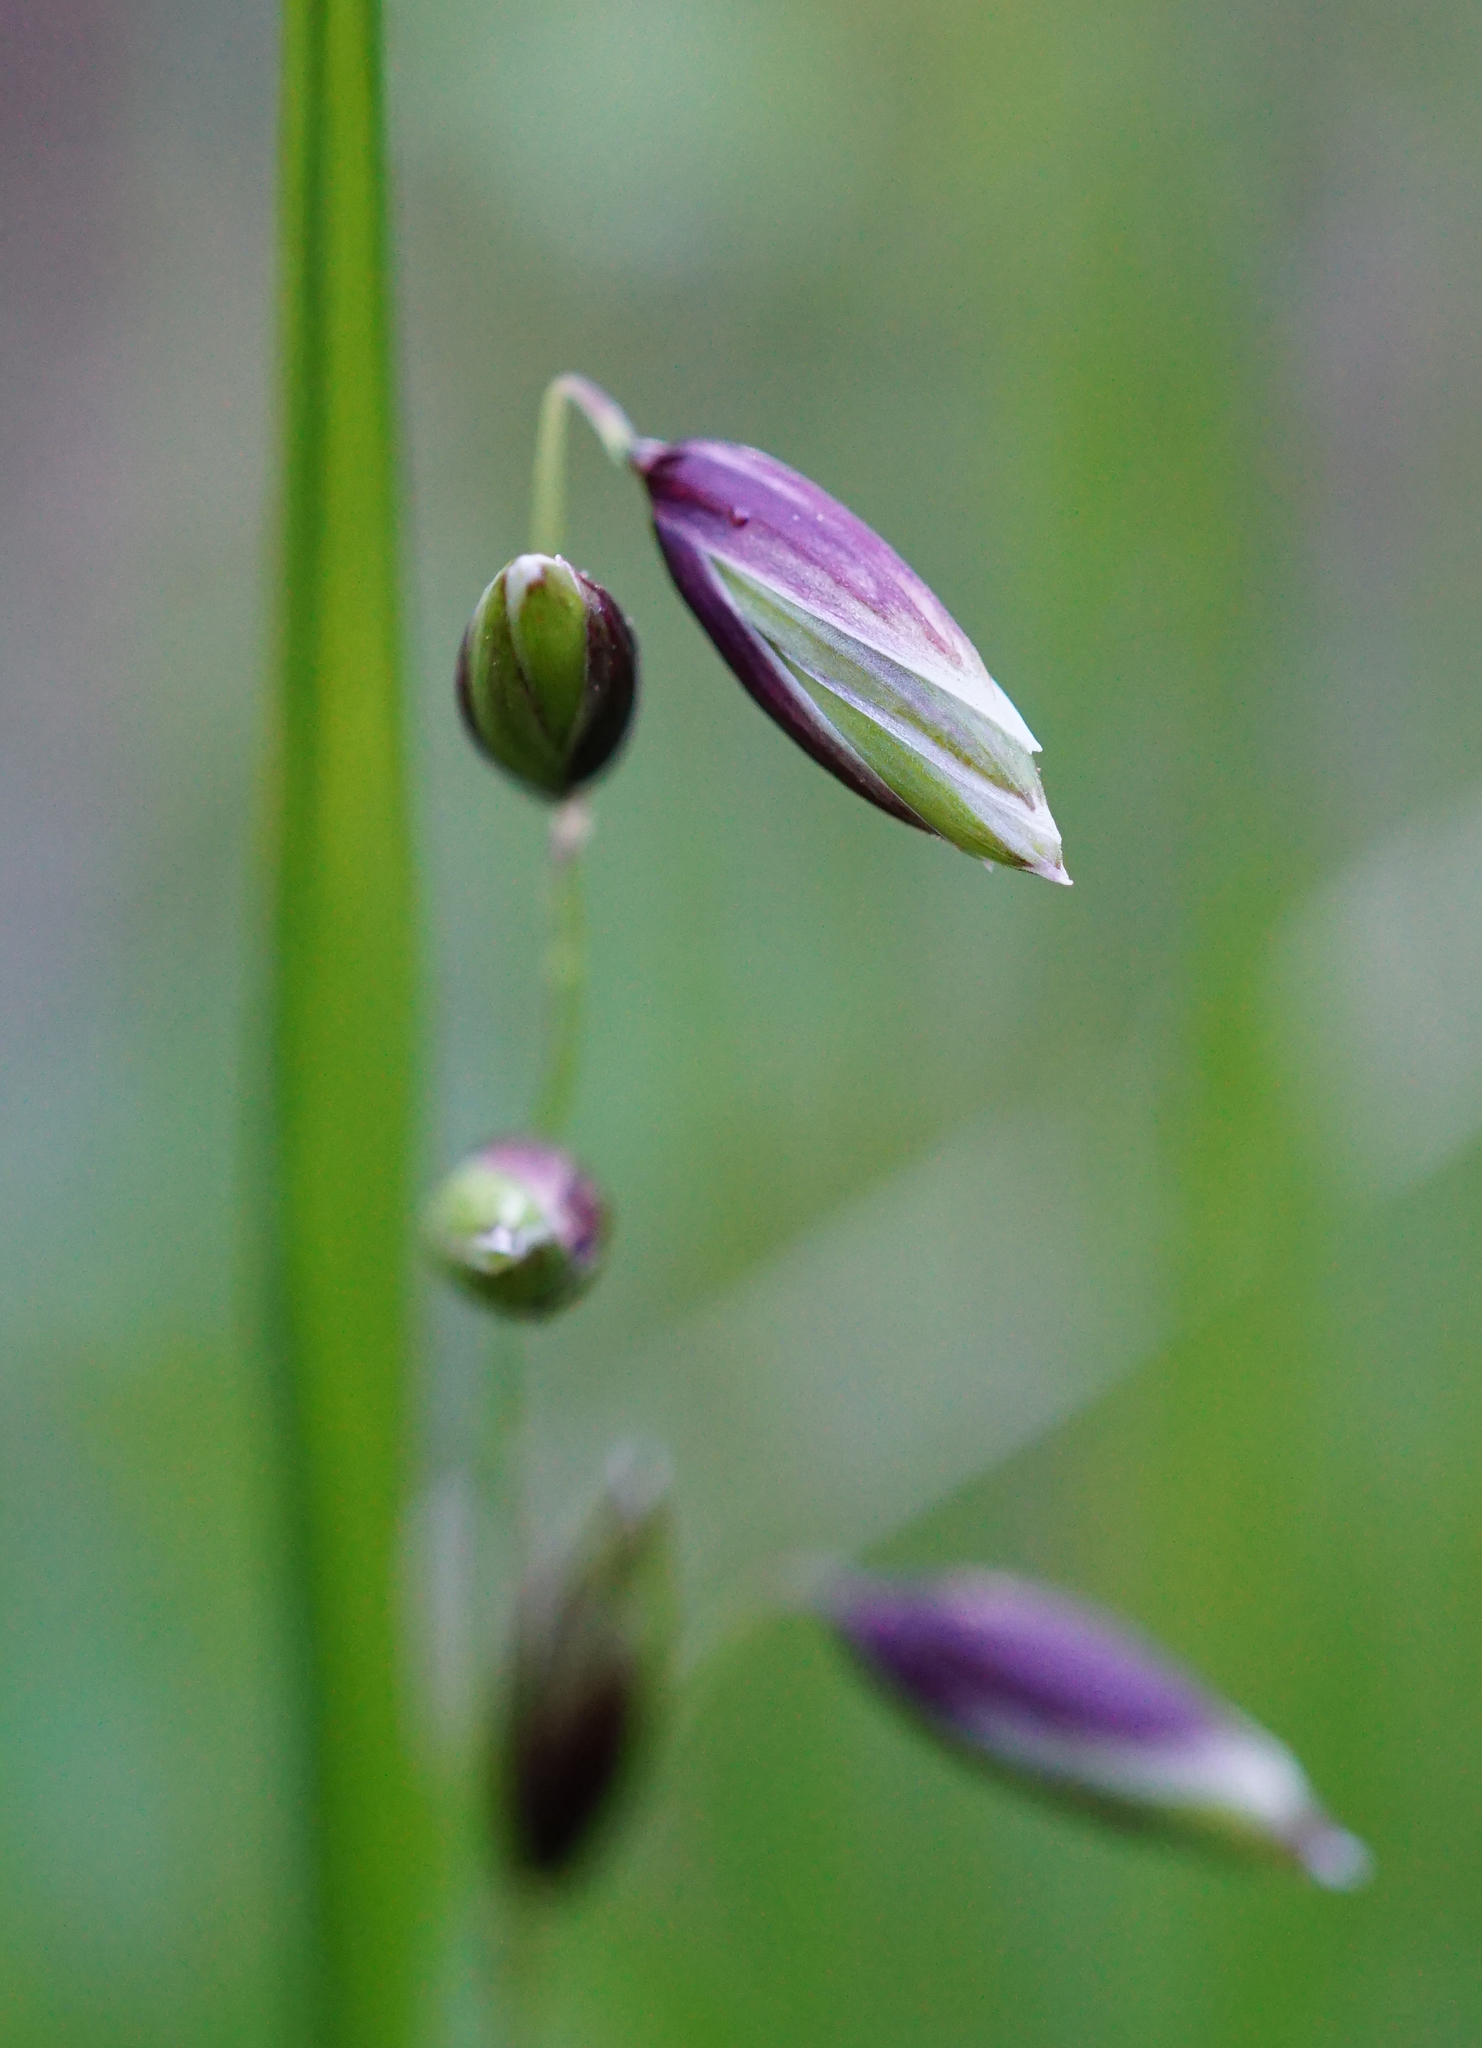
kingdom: Plantae
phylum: Tracheophyta
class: Liliopsida
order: Poales
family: Poaceae
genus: Melica
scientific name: Melica nutans
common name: Mountain melick
